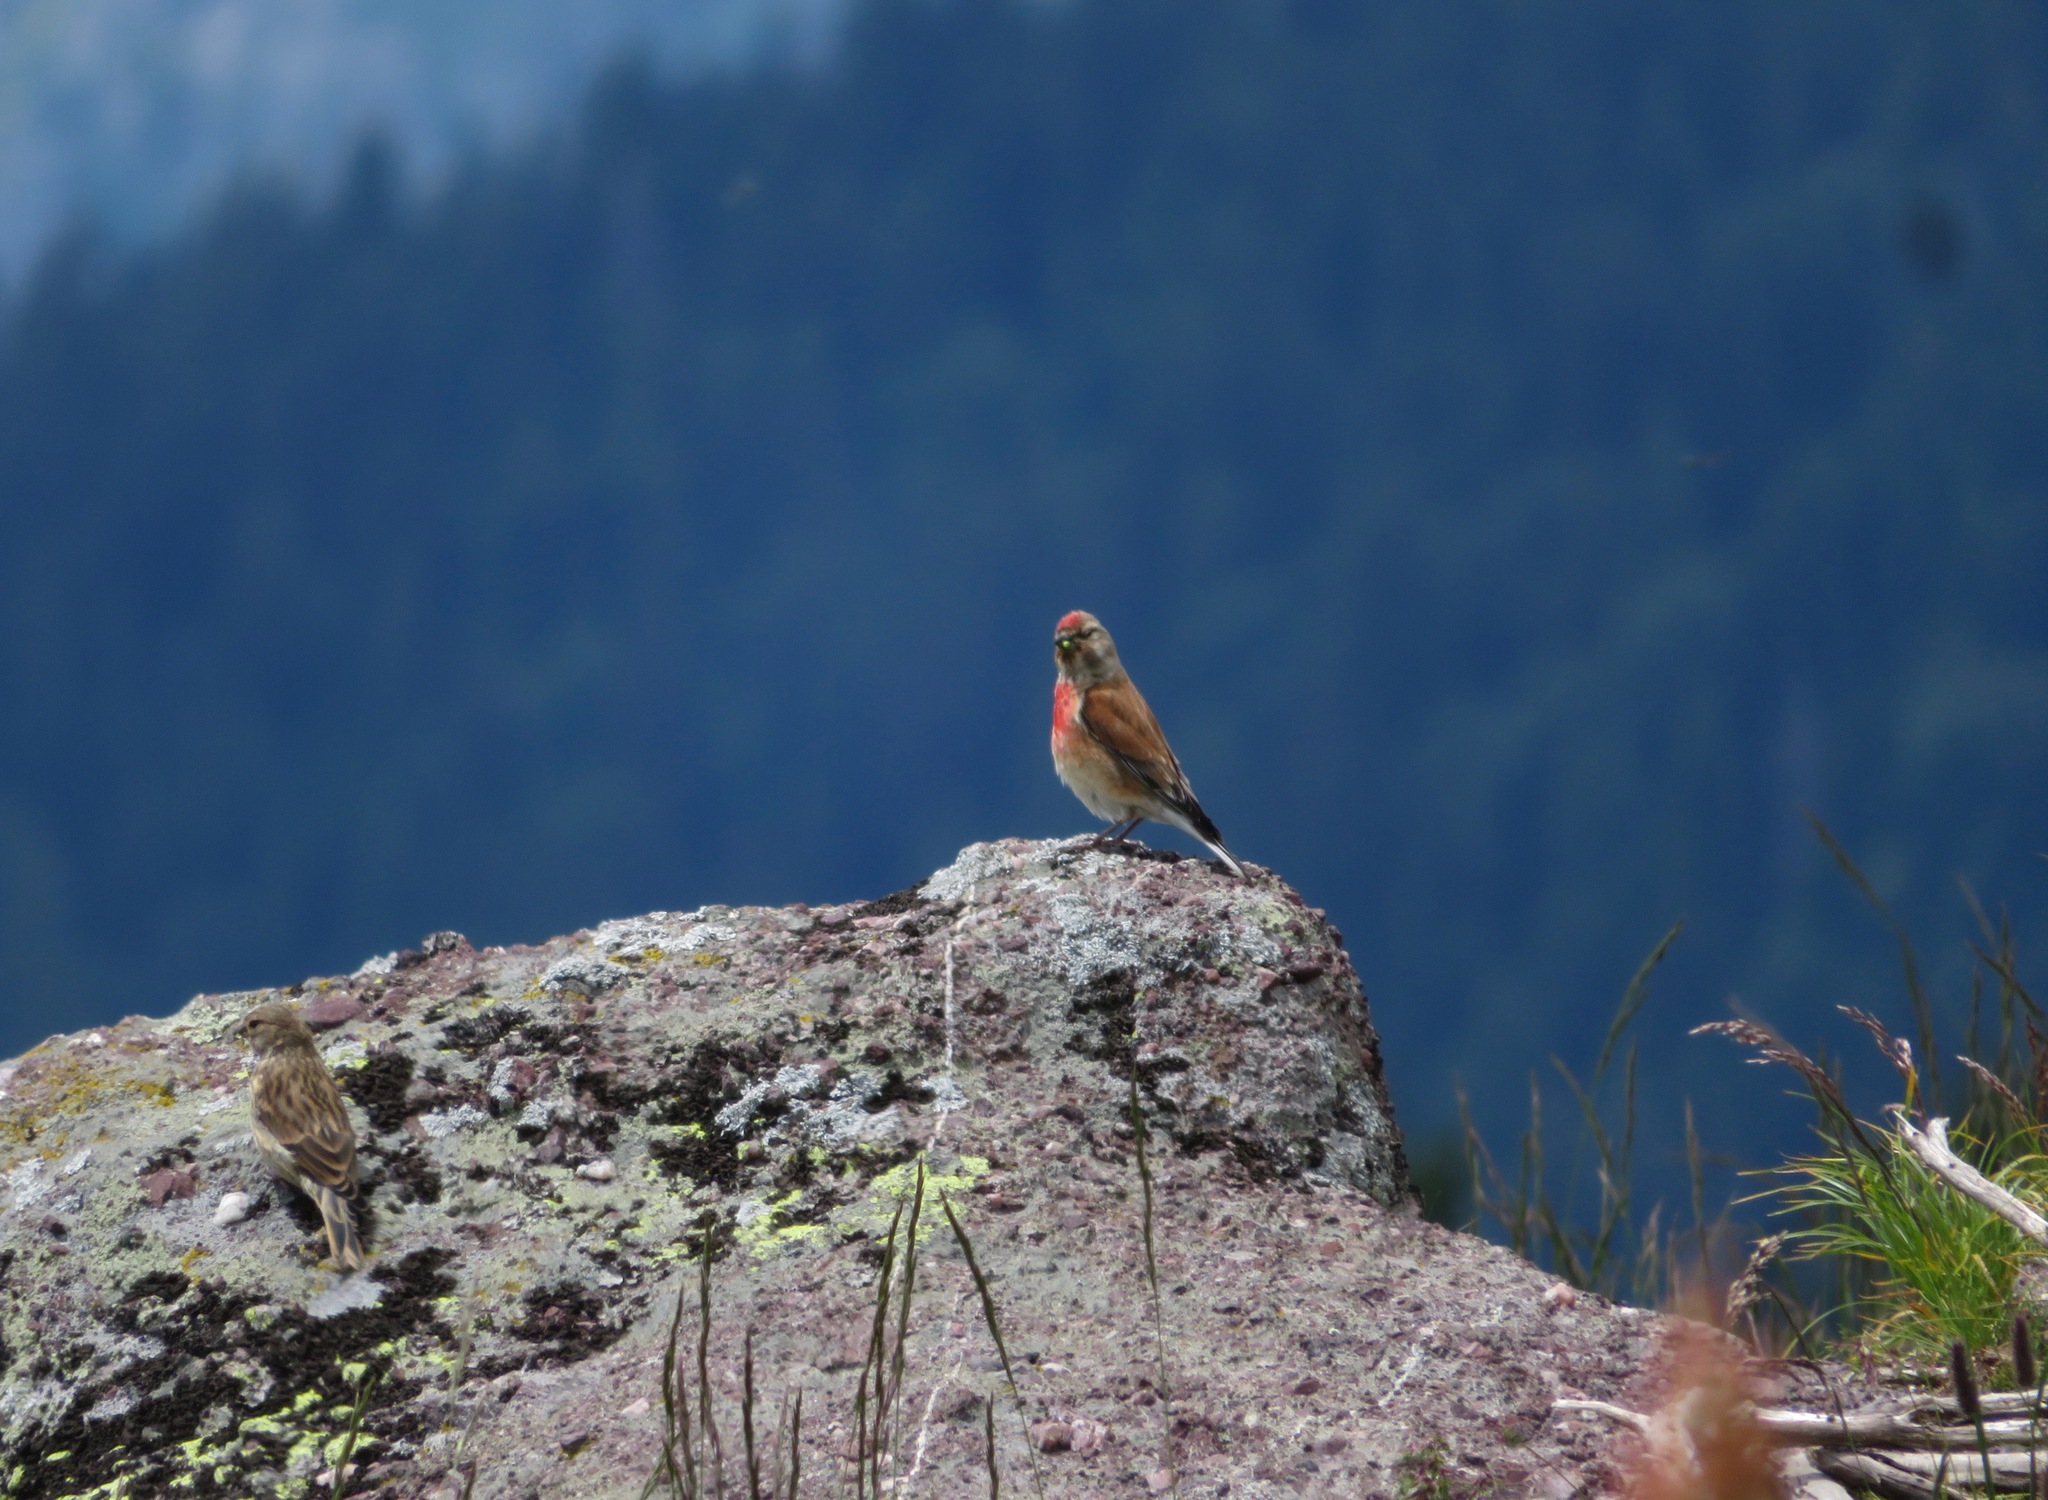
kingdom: Animalia
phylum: Chordata
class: Aves
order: Passeriformes
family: Fringillidae
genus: Linaria
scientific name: Linaria cannabina
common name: Common linnet
